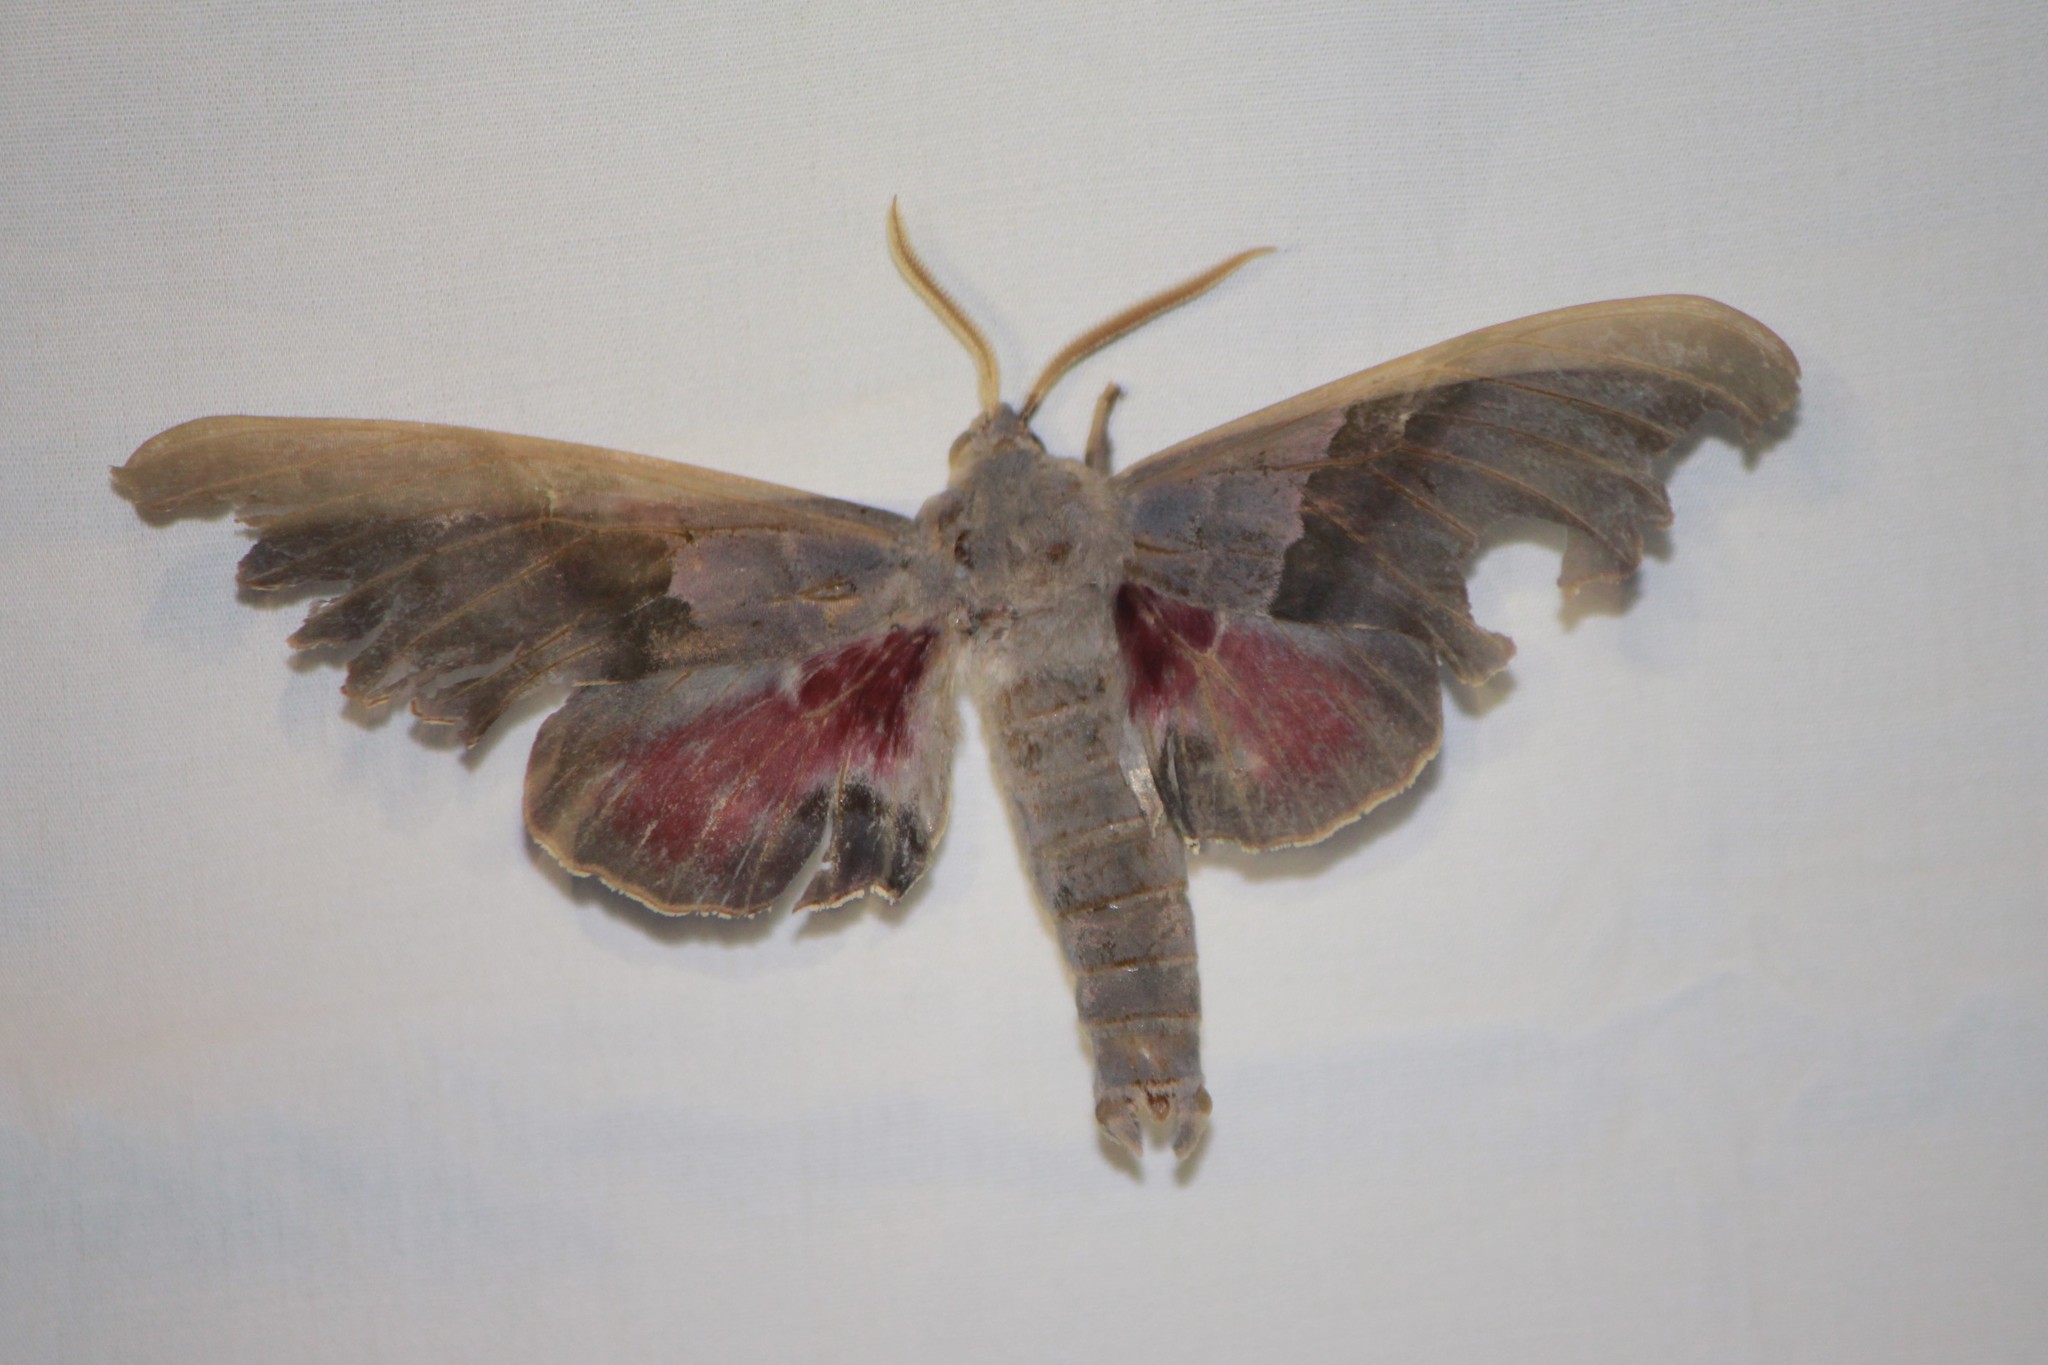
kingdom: Animalia
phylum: Arthropoda
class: Insecta
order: Lepidoptera
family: Sphingidae
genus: Pachysphinx
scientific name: Pachysphinx modesta
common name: Big poplar sphinx
